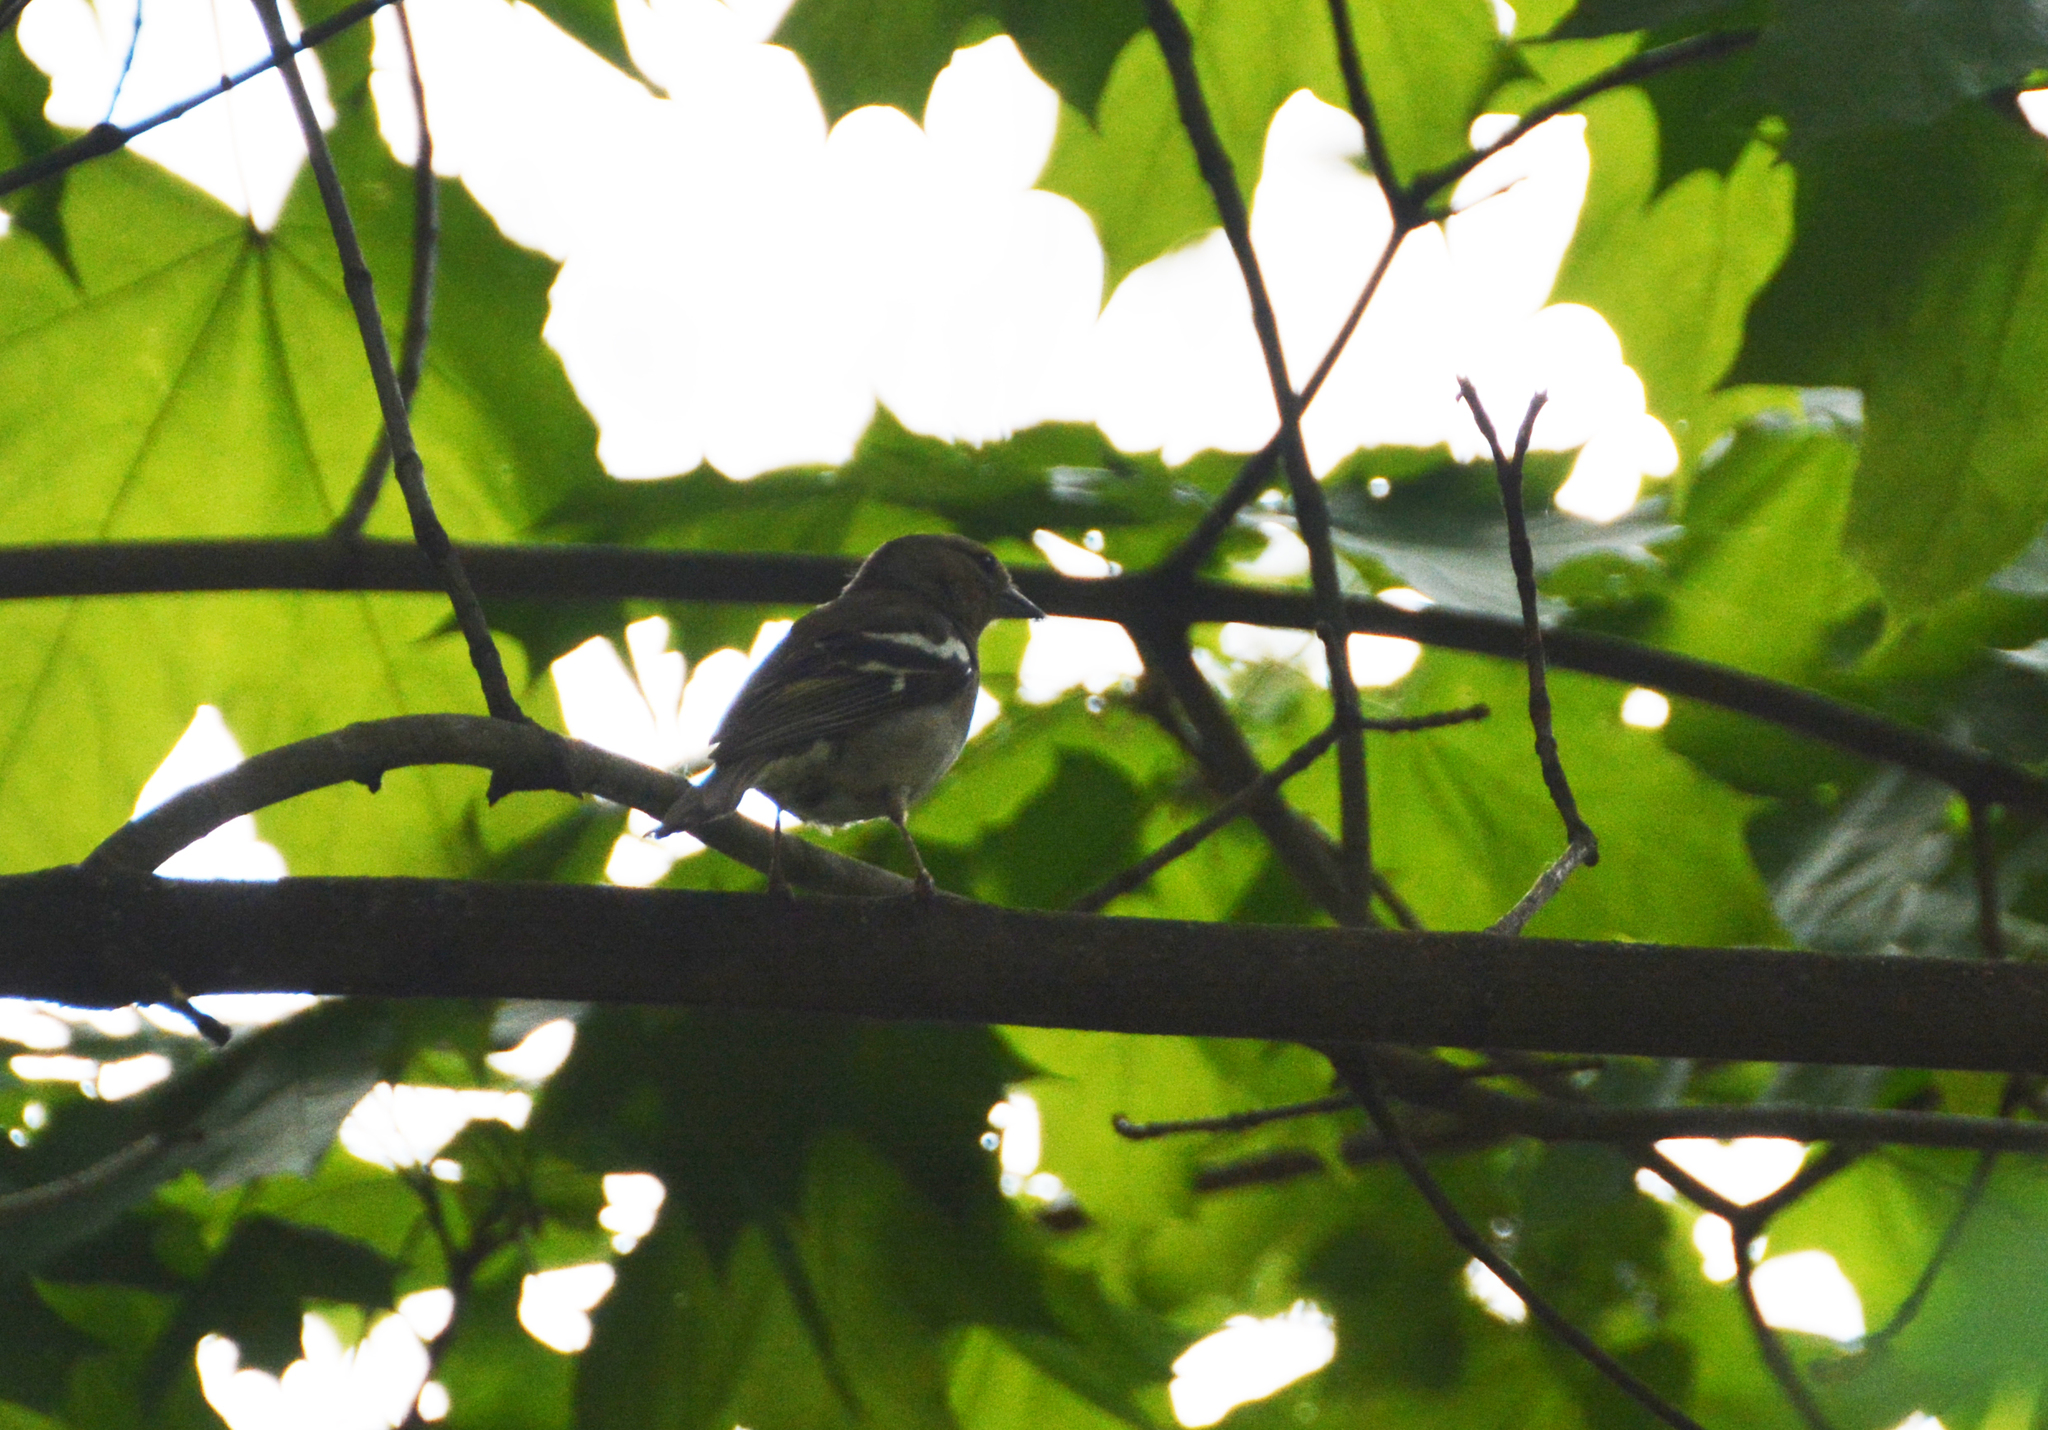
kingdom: Animalia
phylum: Chordata
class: Aves
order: Passeriformes
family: Fringillidae
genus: Fringilla
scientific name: Fringilla coelebs
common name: Common chaffinch
